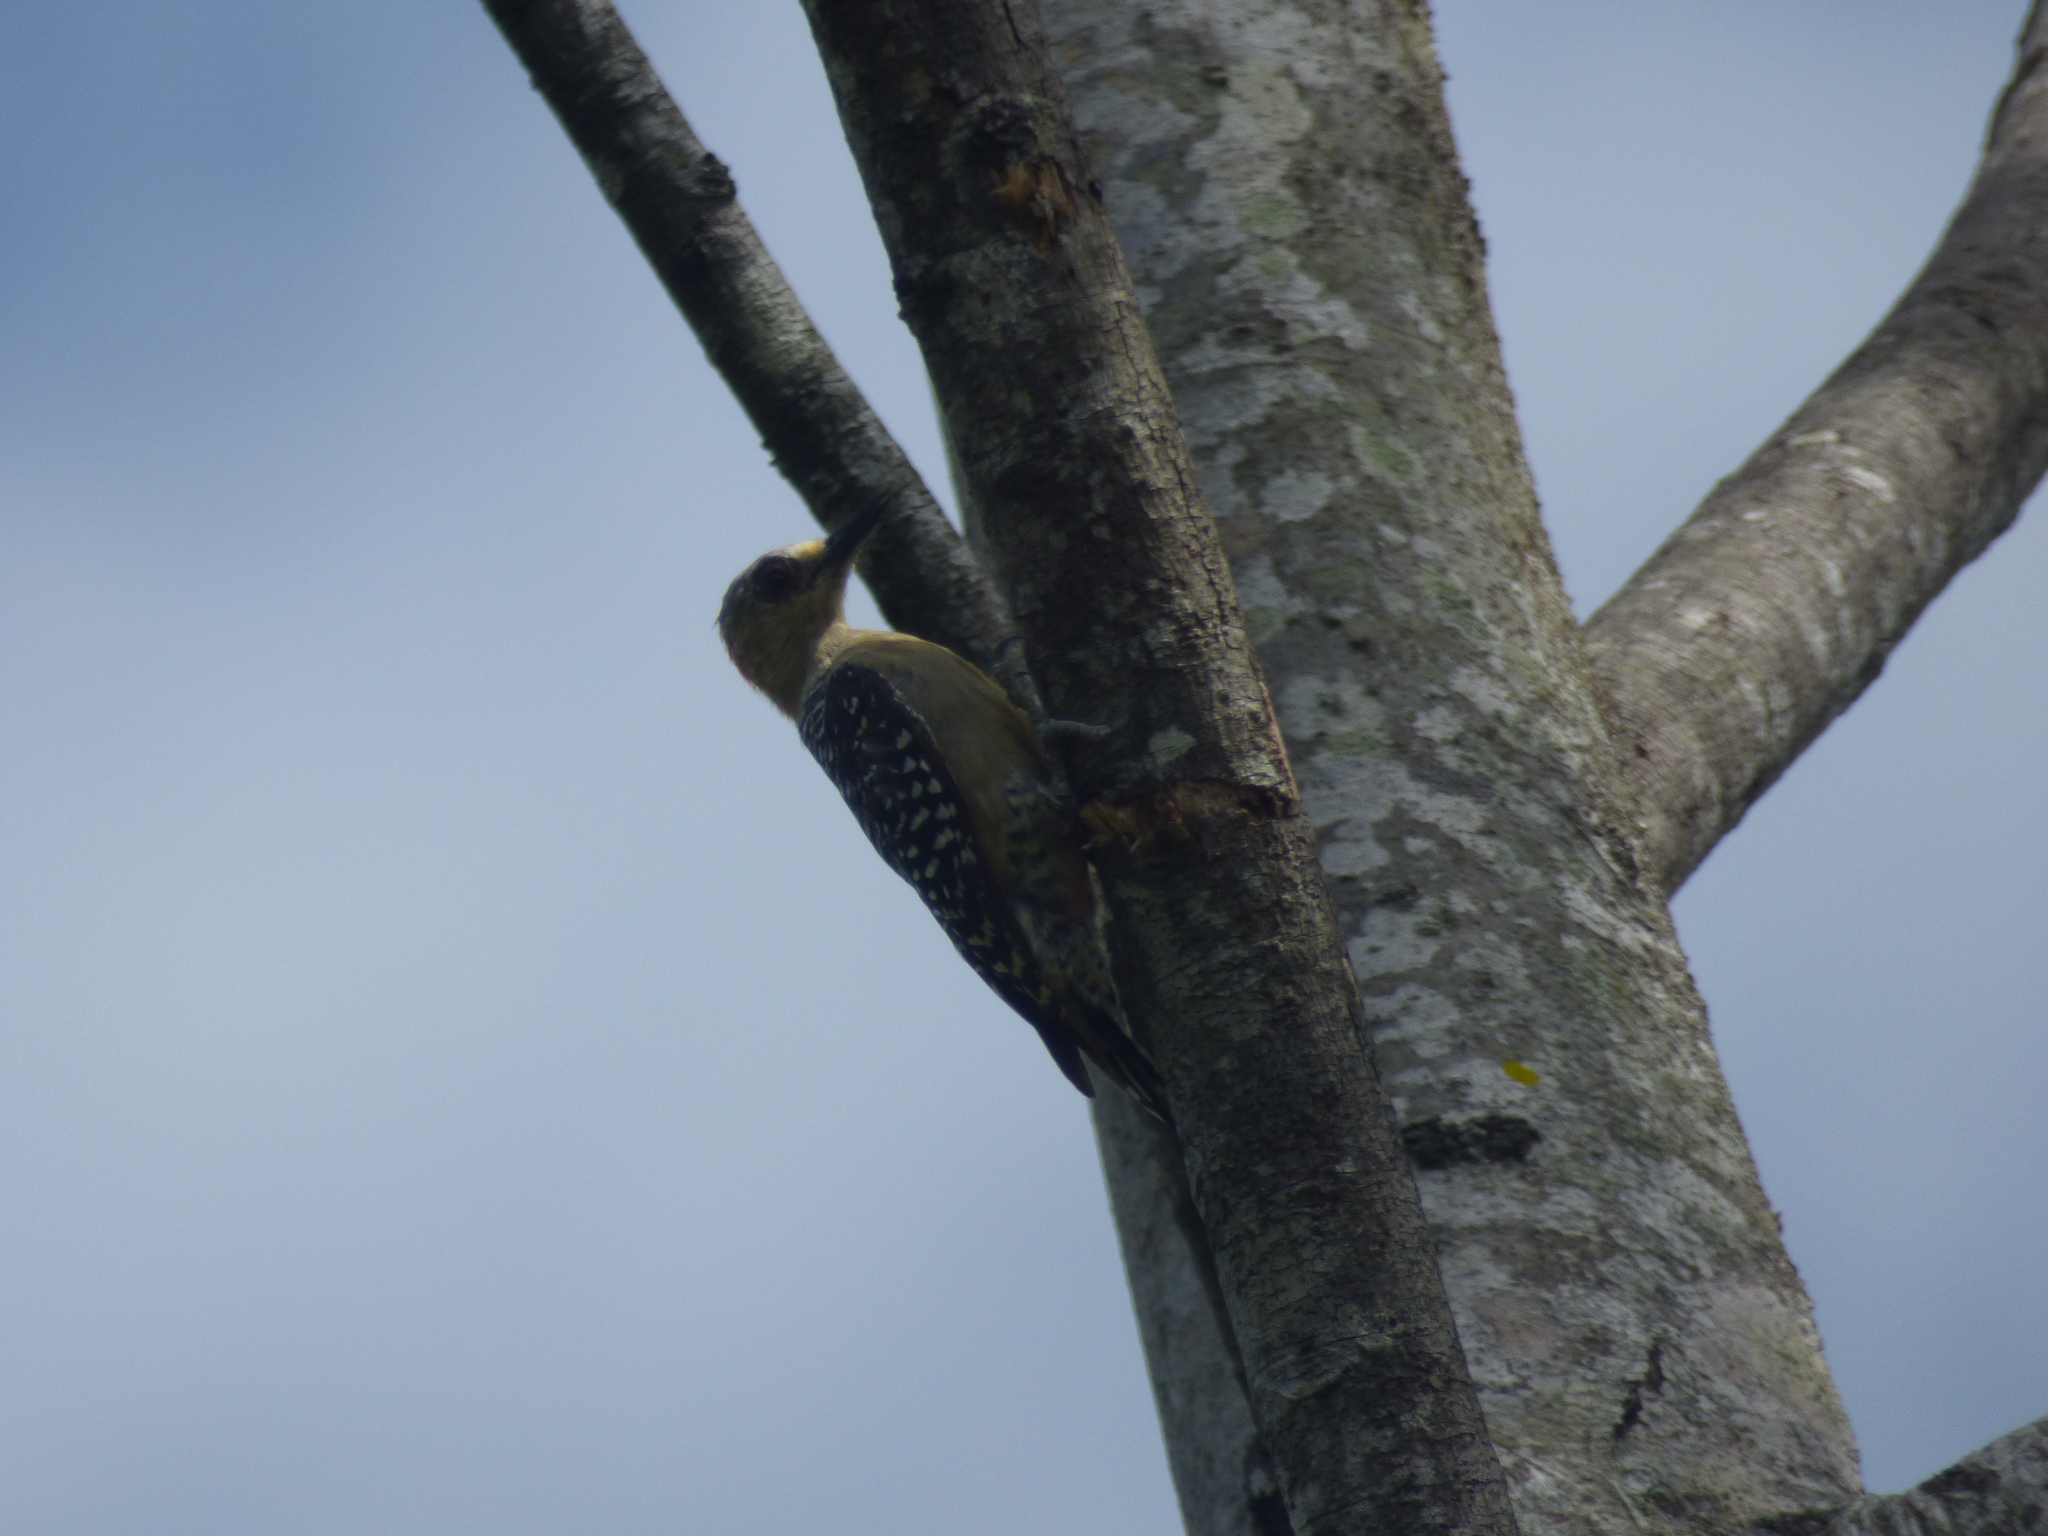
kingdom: Animalia
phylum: Chordata
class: Aves
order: Piciformes
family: Picidae
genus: Melanerpes
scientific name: Melanerpes rubricapillus
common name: Red-crowned woodpecker
